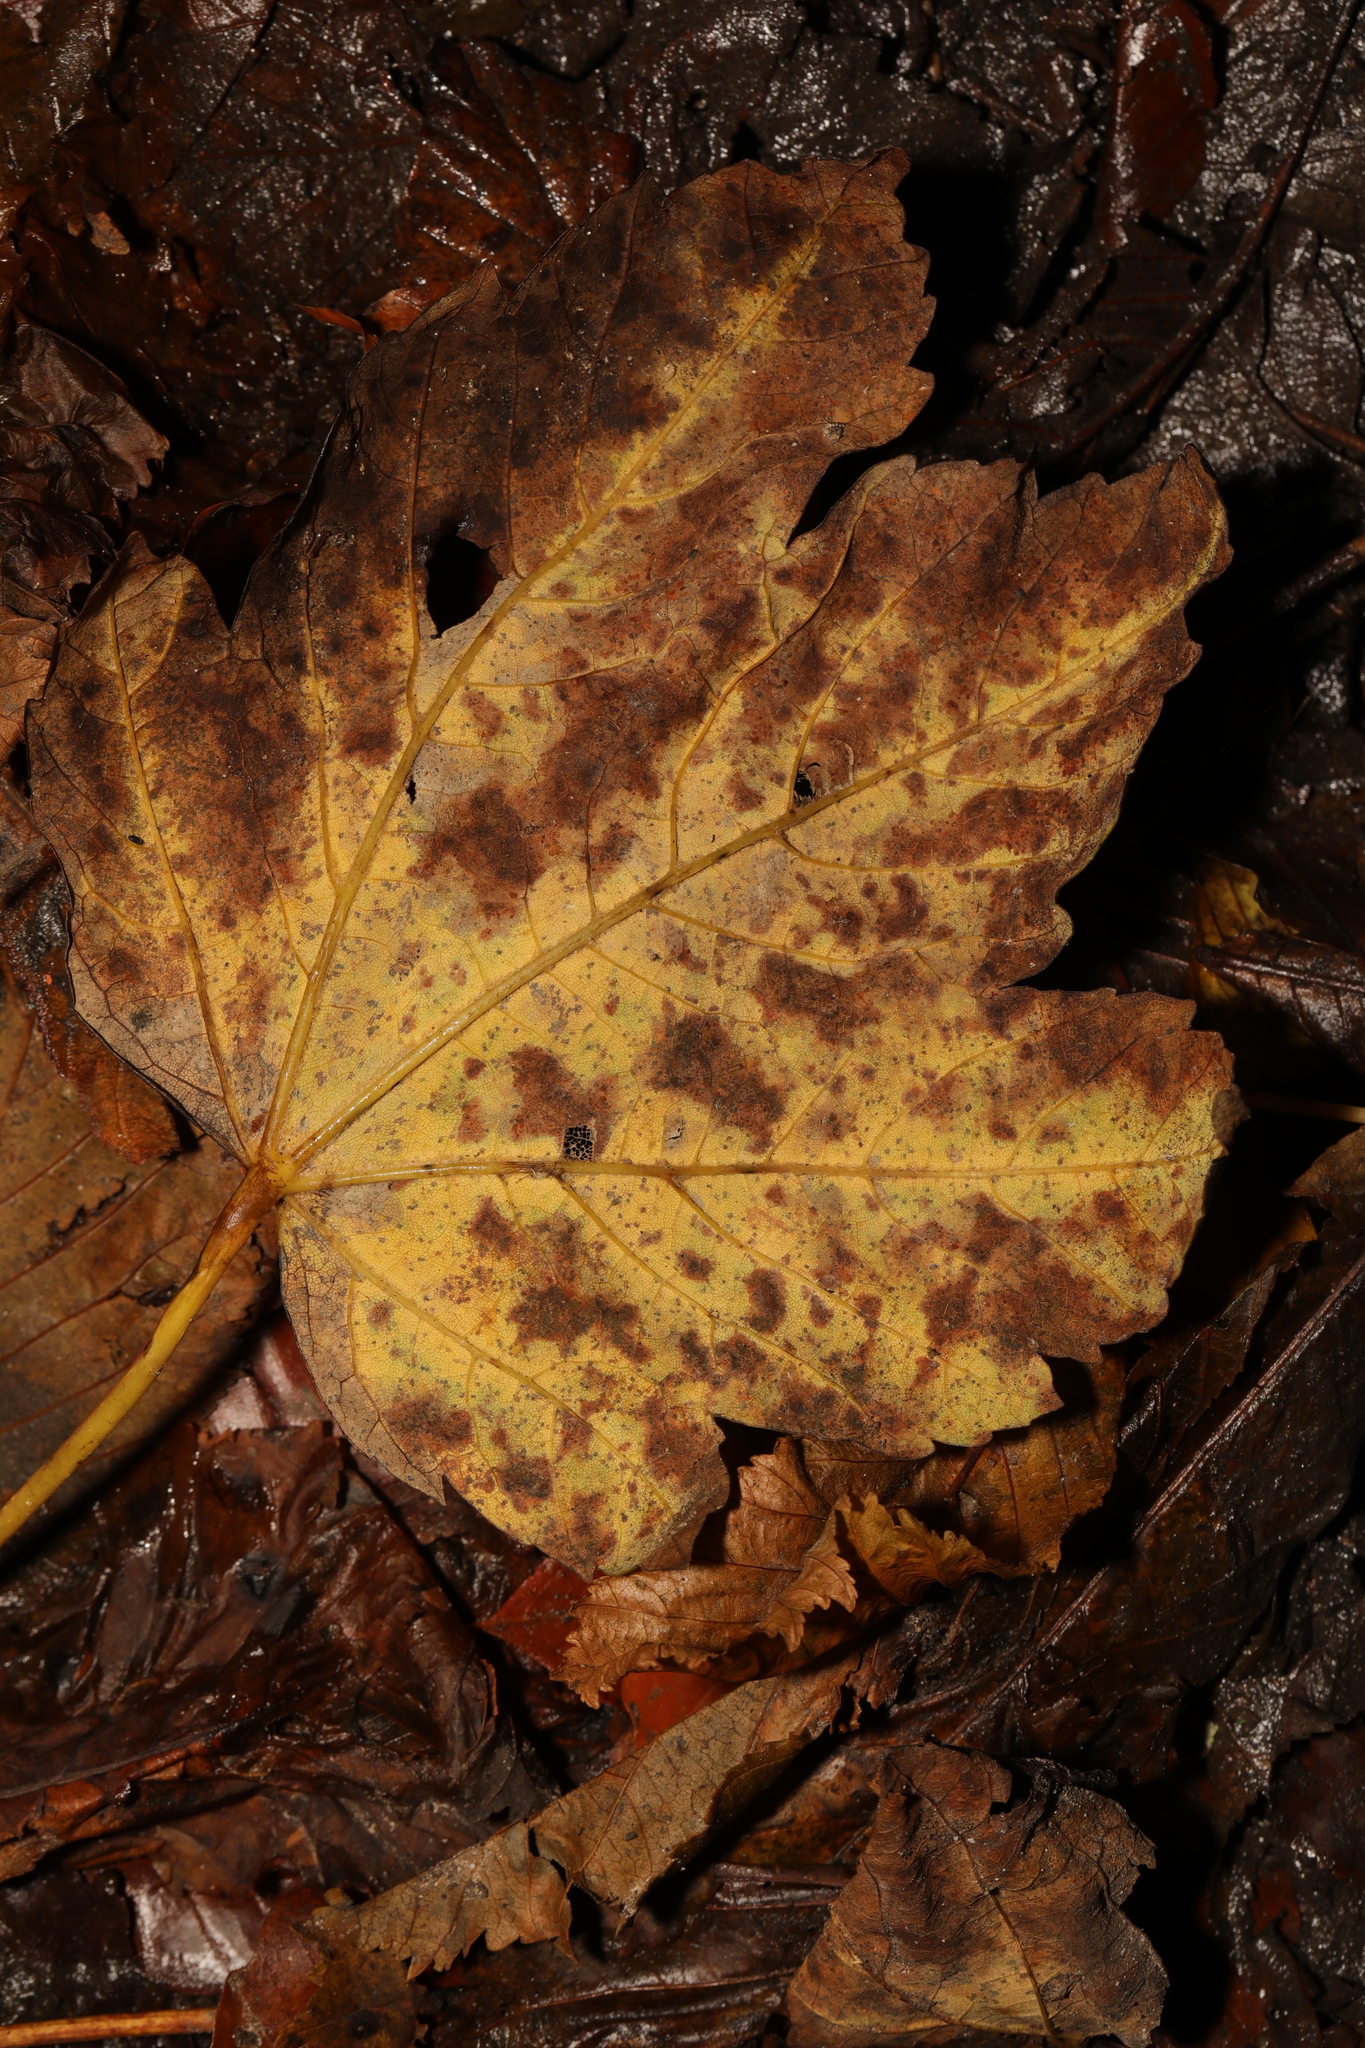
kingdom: Plantae
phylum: Tracheophyta
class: Magnoliopsida
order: Sapindales
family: Sapindaceae
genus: Acer
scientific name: Acer pseudoplatanus
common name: Sycamore
